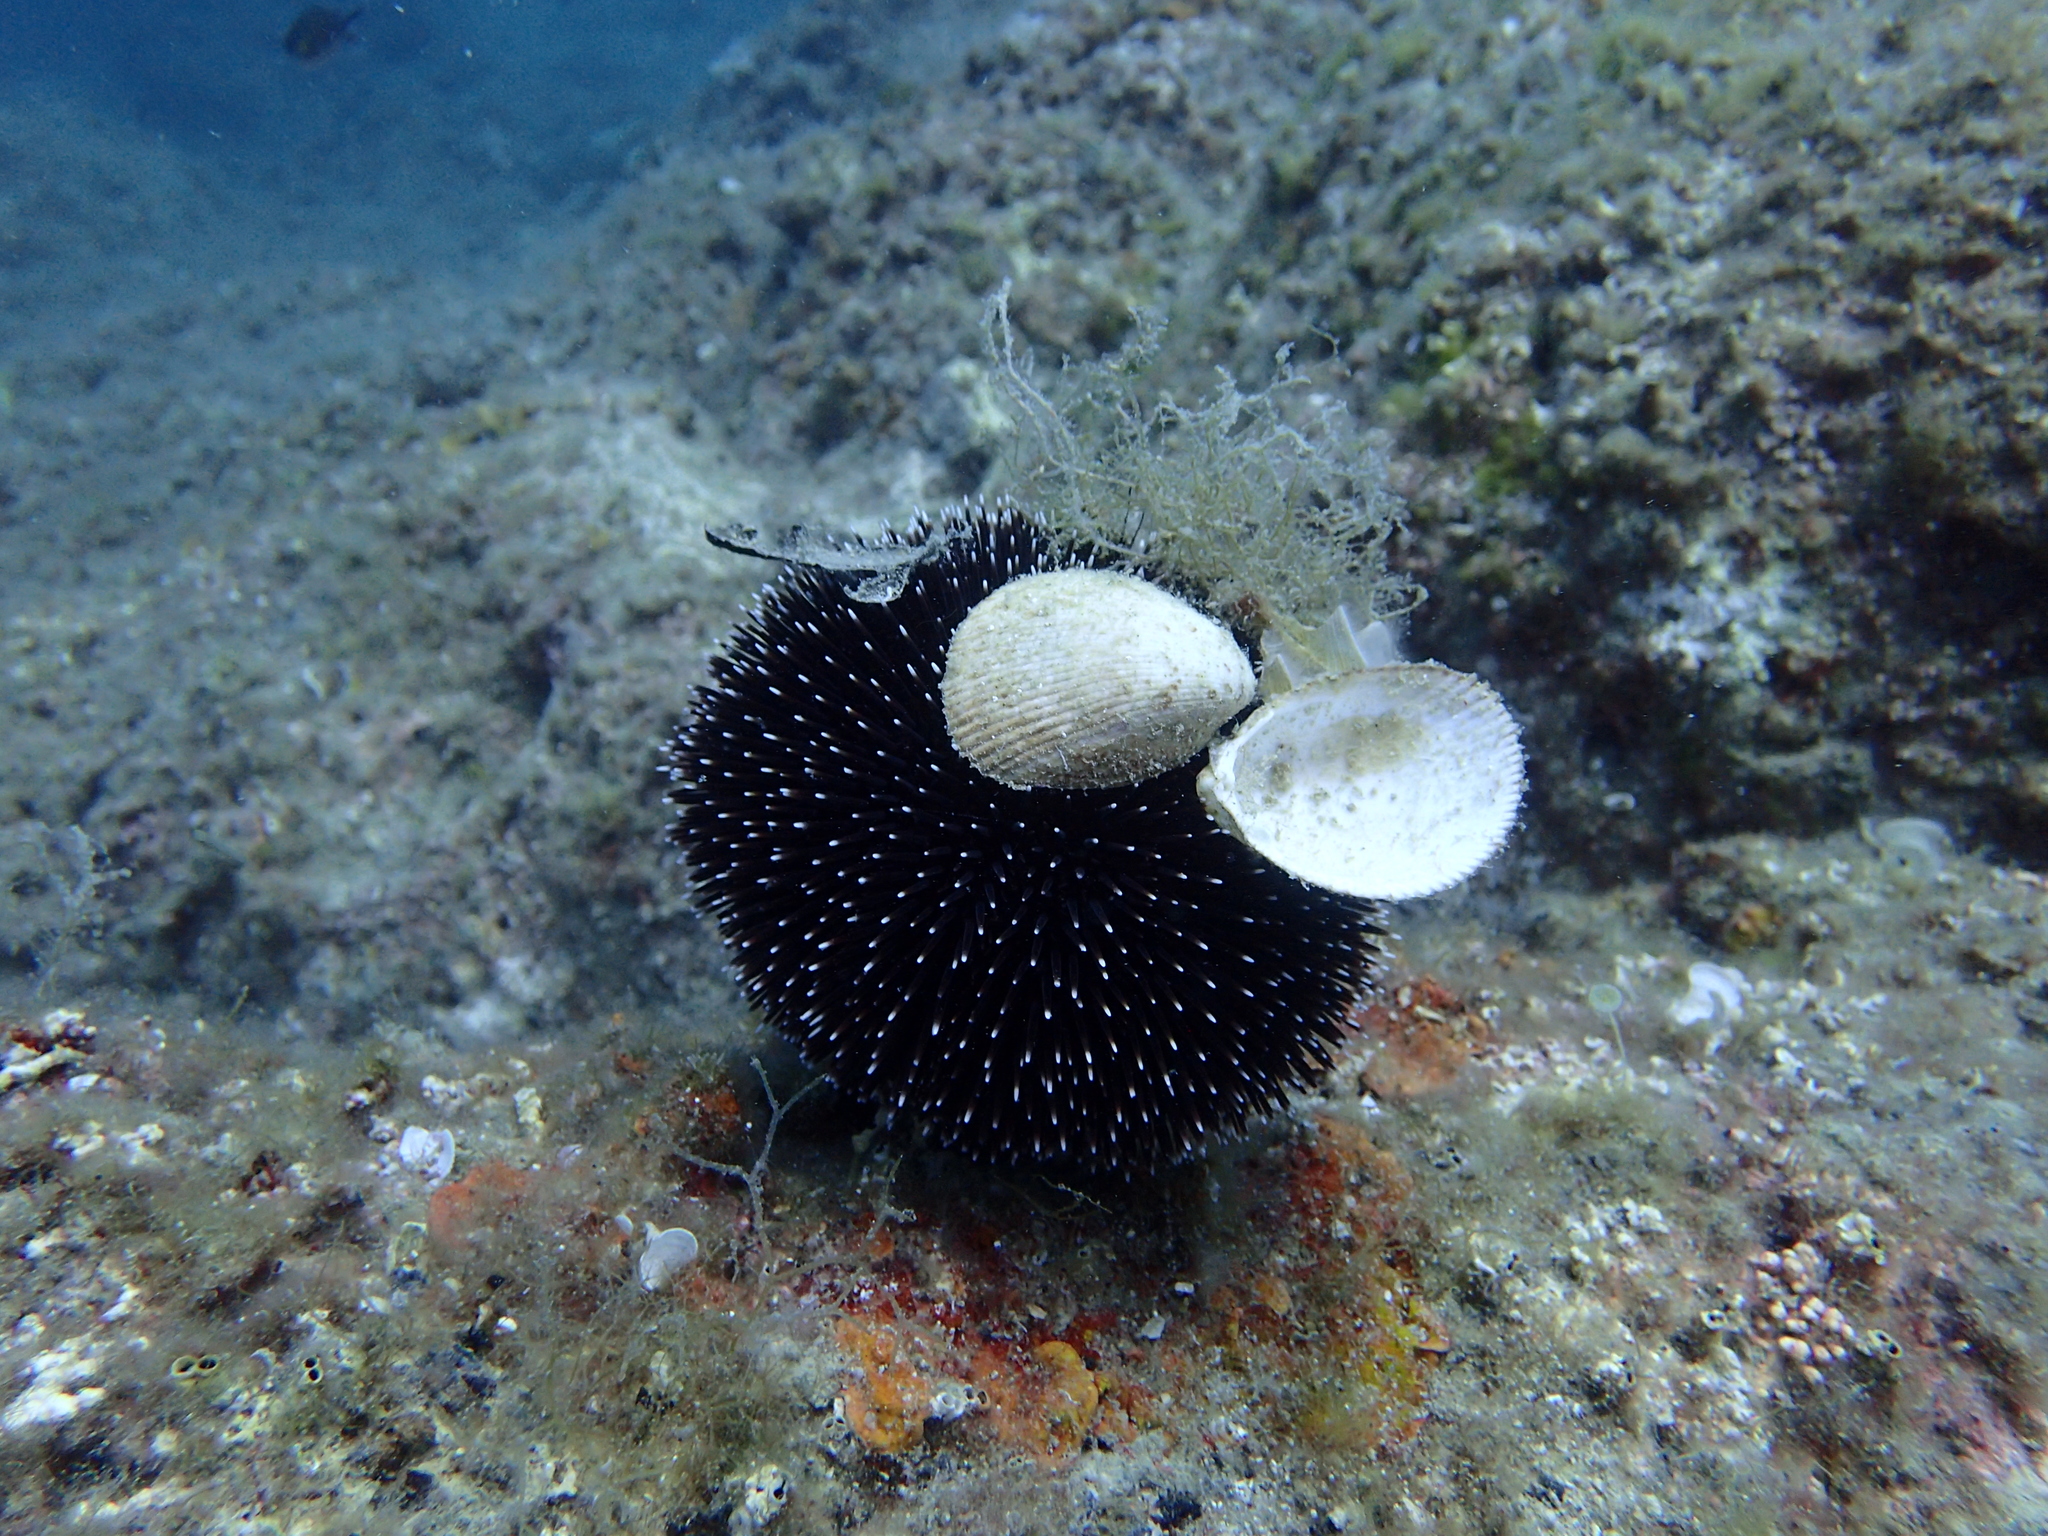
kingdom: Animalia
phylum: Echinodermata
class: Echinoidea
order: Camarodonta
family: Toxopneustidae
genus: Sphaerechinus
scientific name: Sphaerechinus granularis
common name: Violet sea urchin
